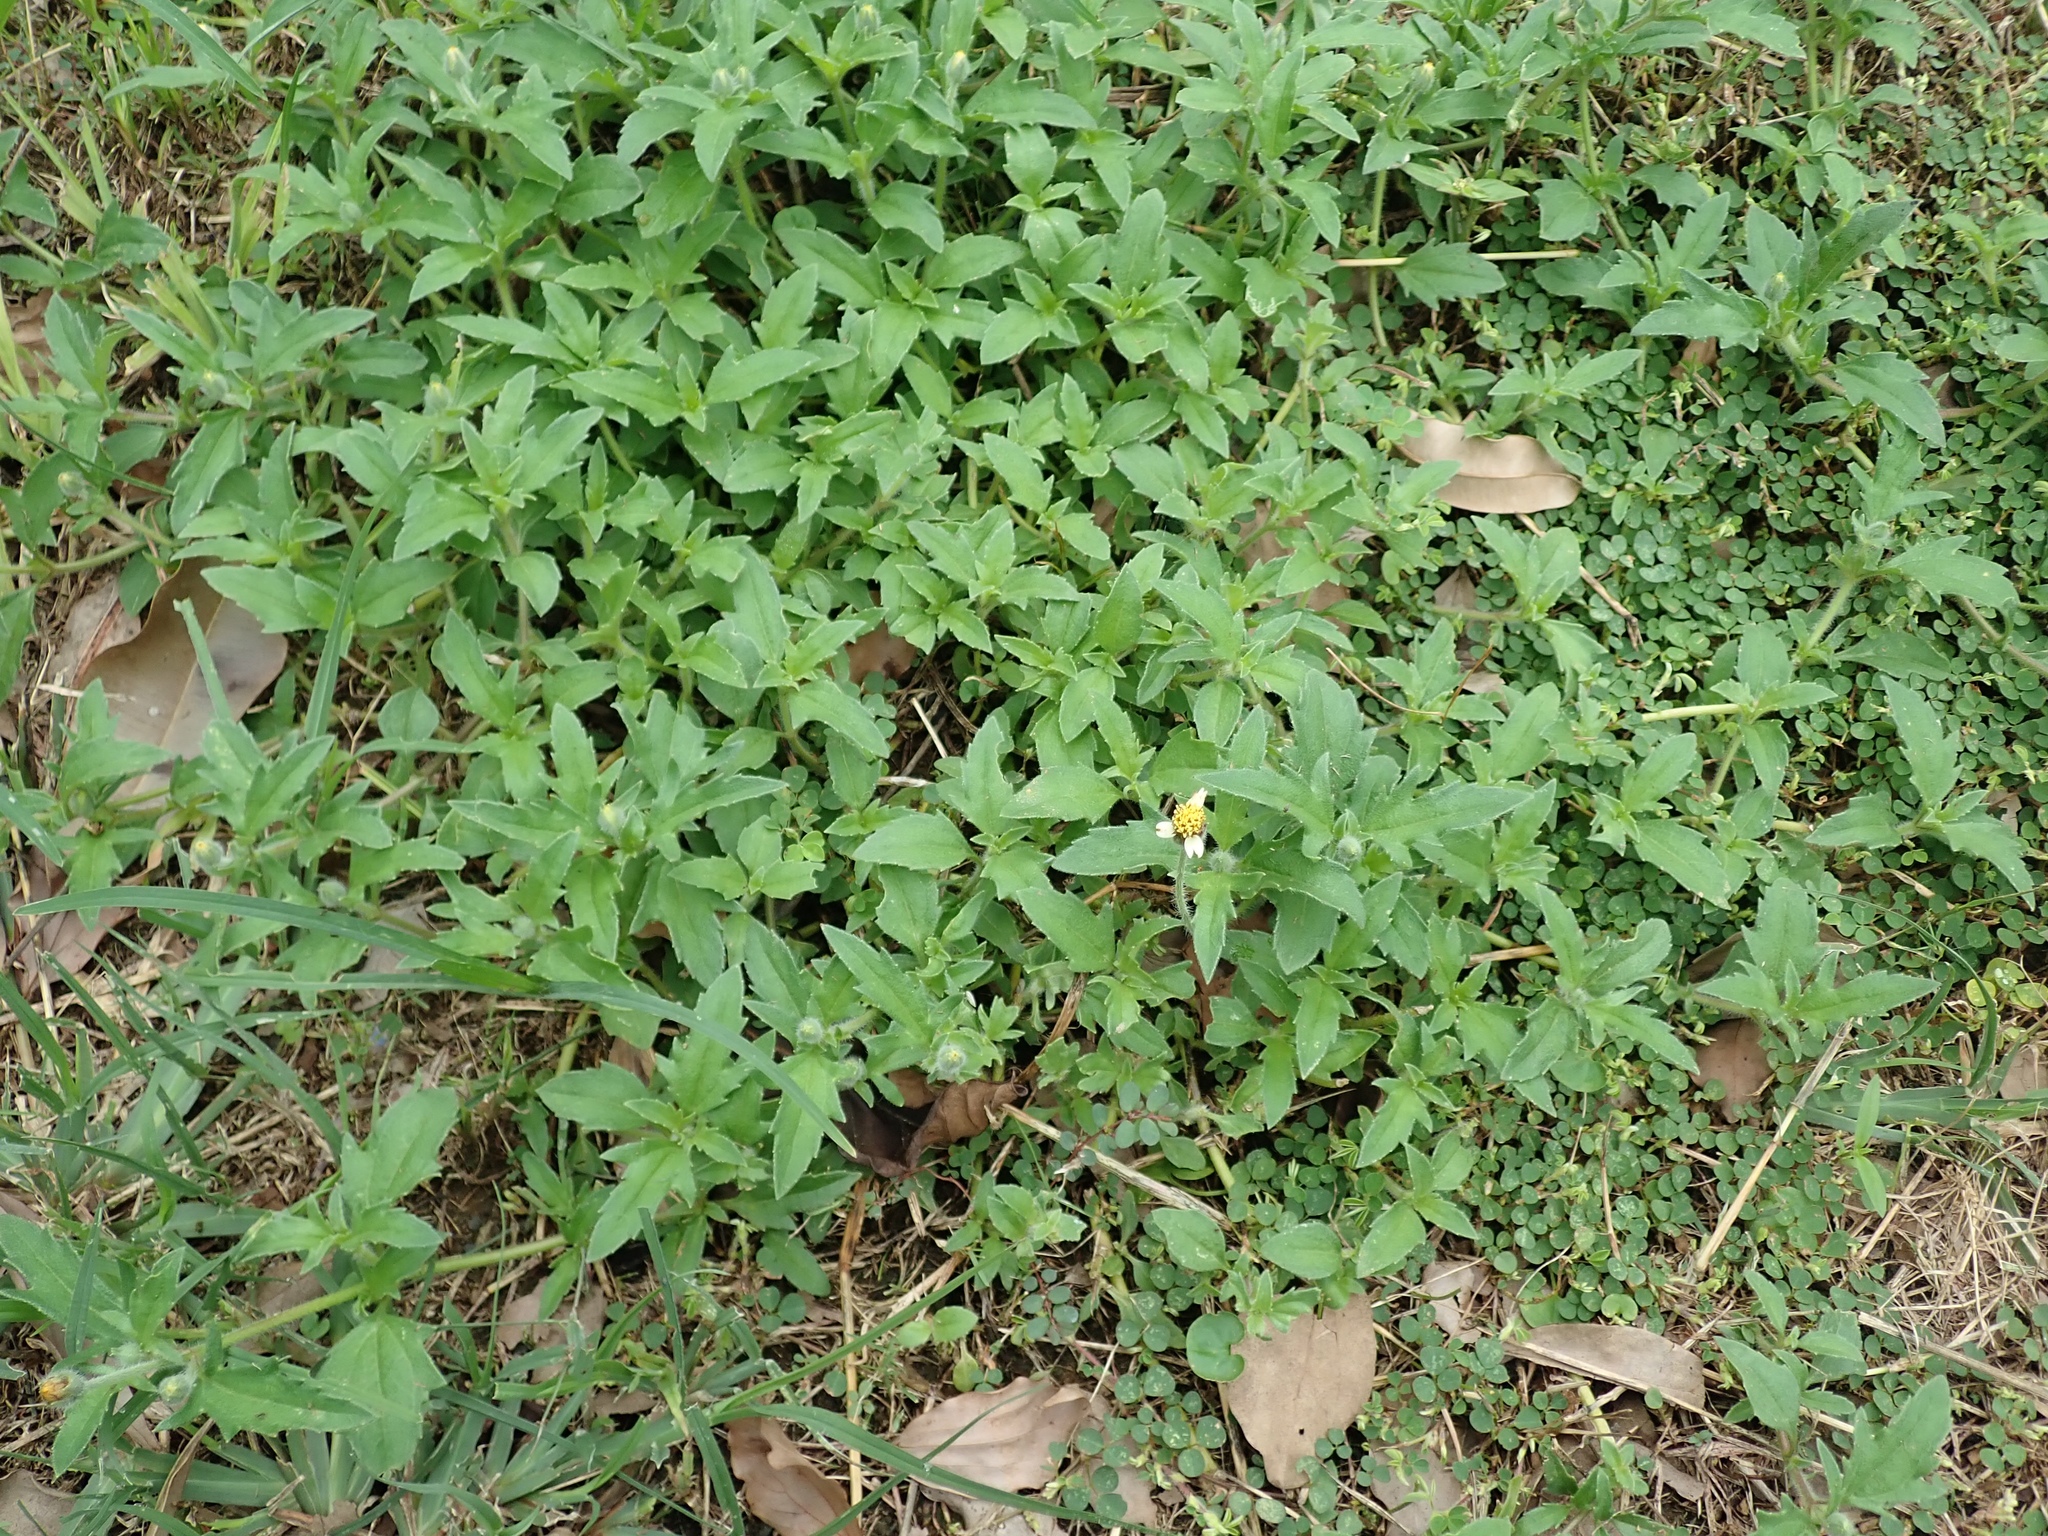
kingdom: Plantae
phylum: Tracheophyta
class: Magnoliopsida
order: Asterales
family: Asteraceae
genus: Tridax
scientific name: Tridax procumbens
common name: Coatbuttons
